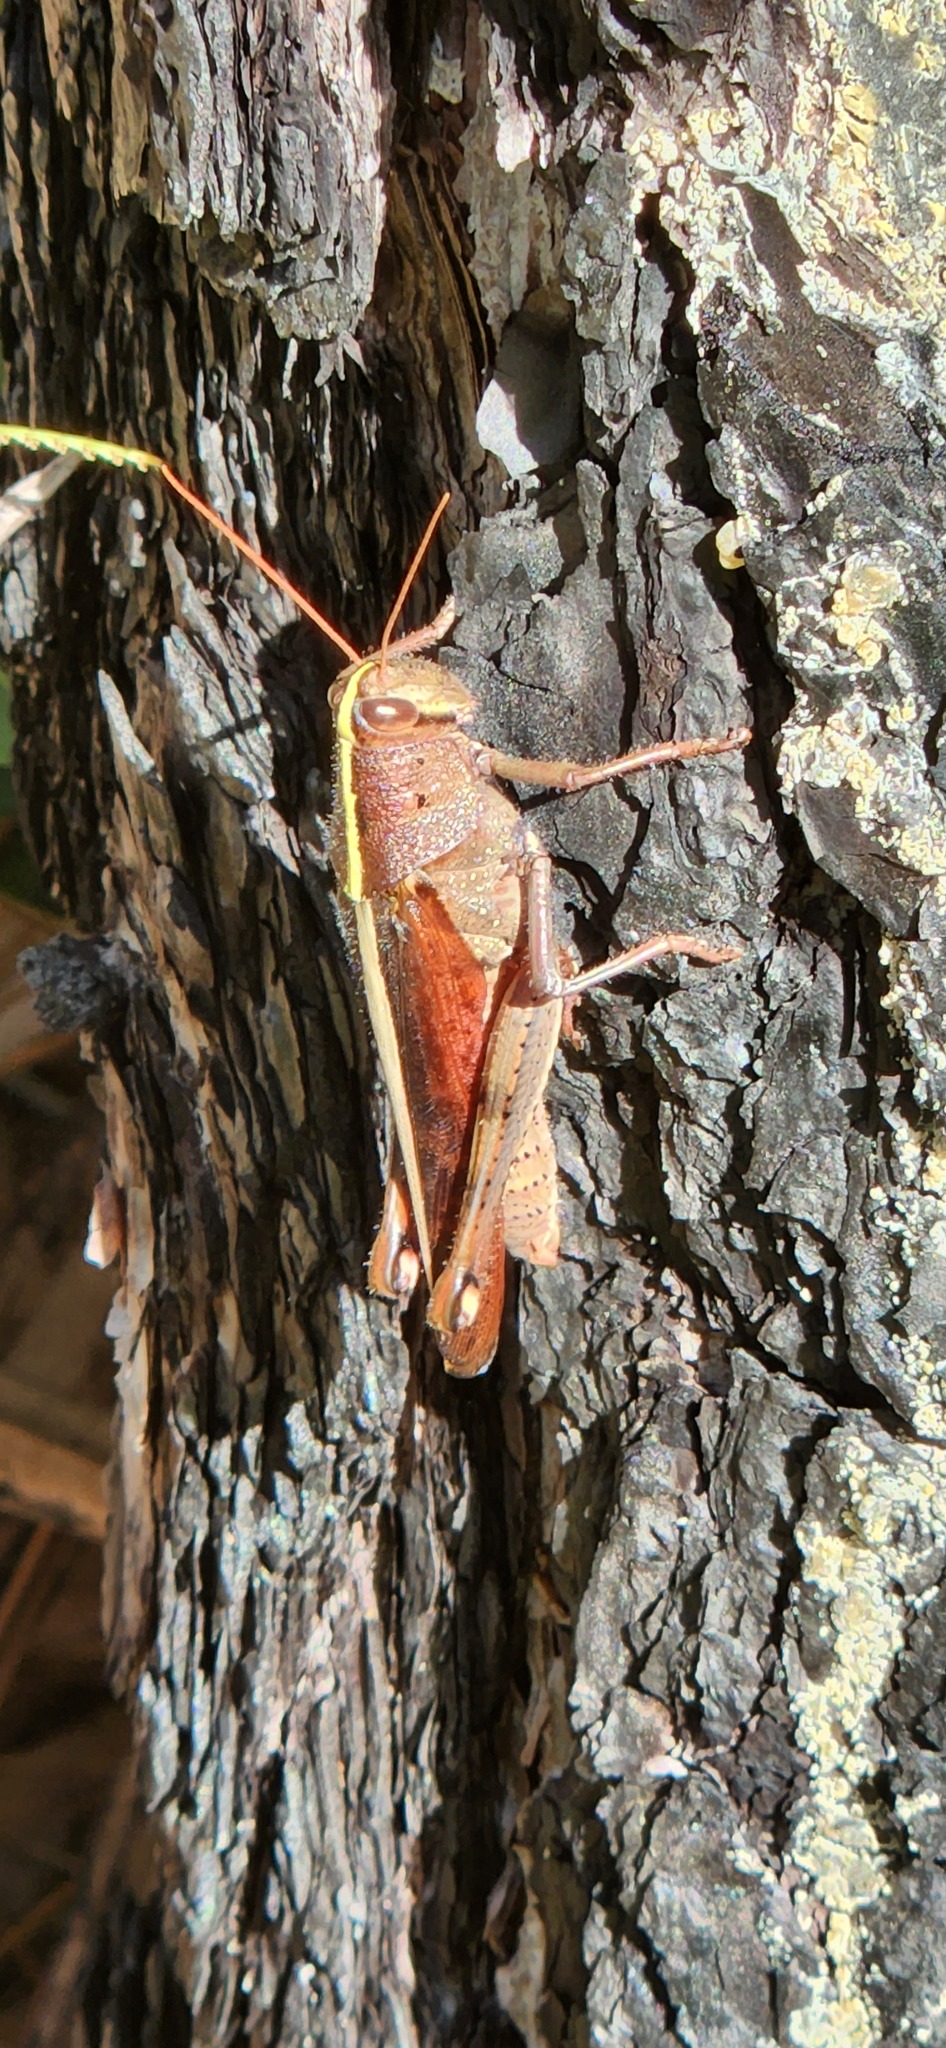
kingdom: Animalia
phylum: Arthropoda
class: Insecta
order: Orthoptera
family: Acrididae
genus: Schistocerca
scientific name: Schistocerca alutacea
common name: Leather-colored bird locust
